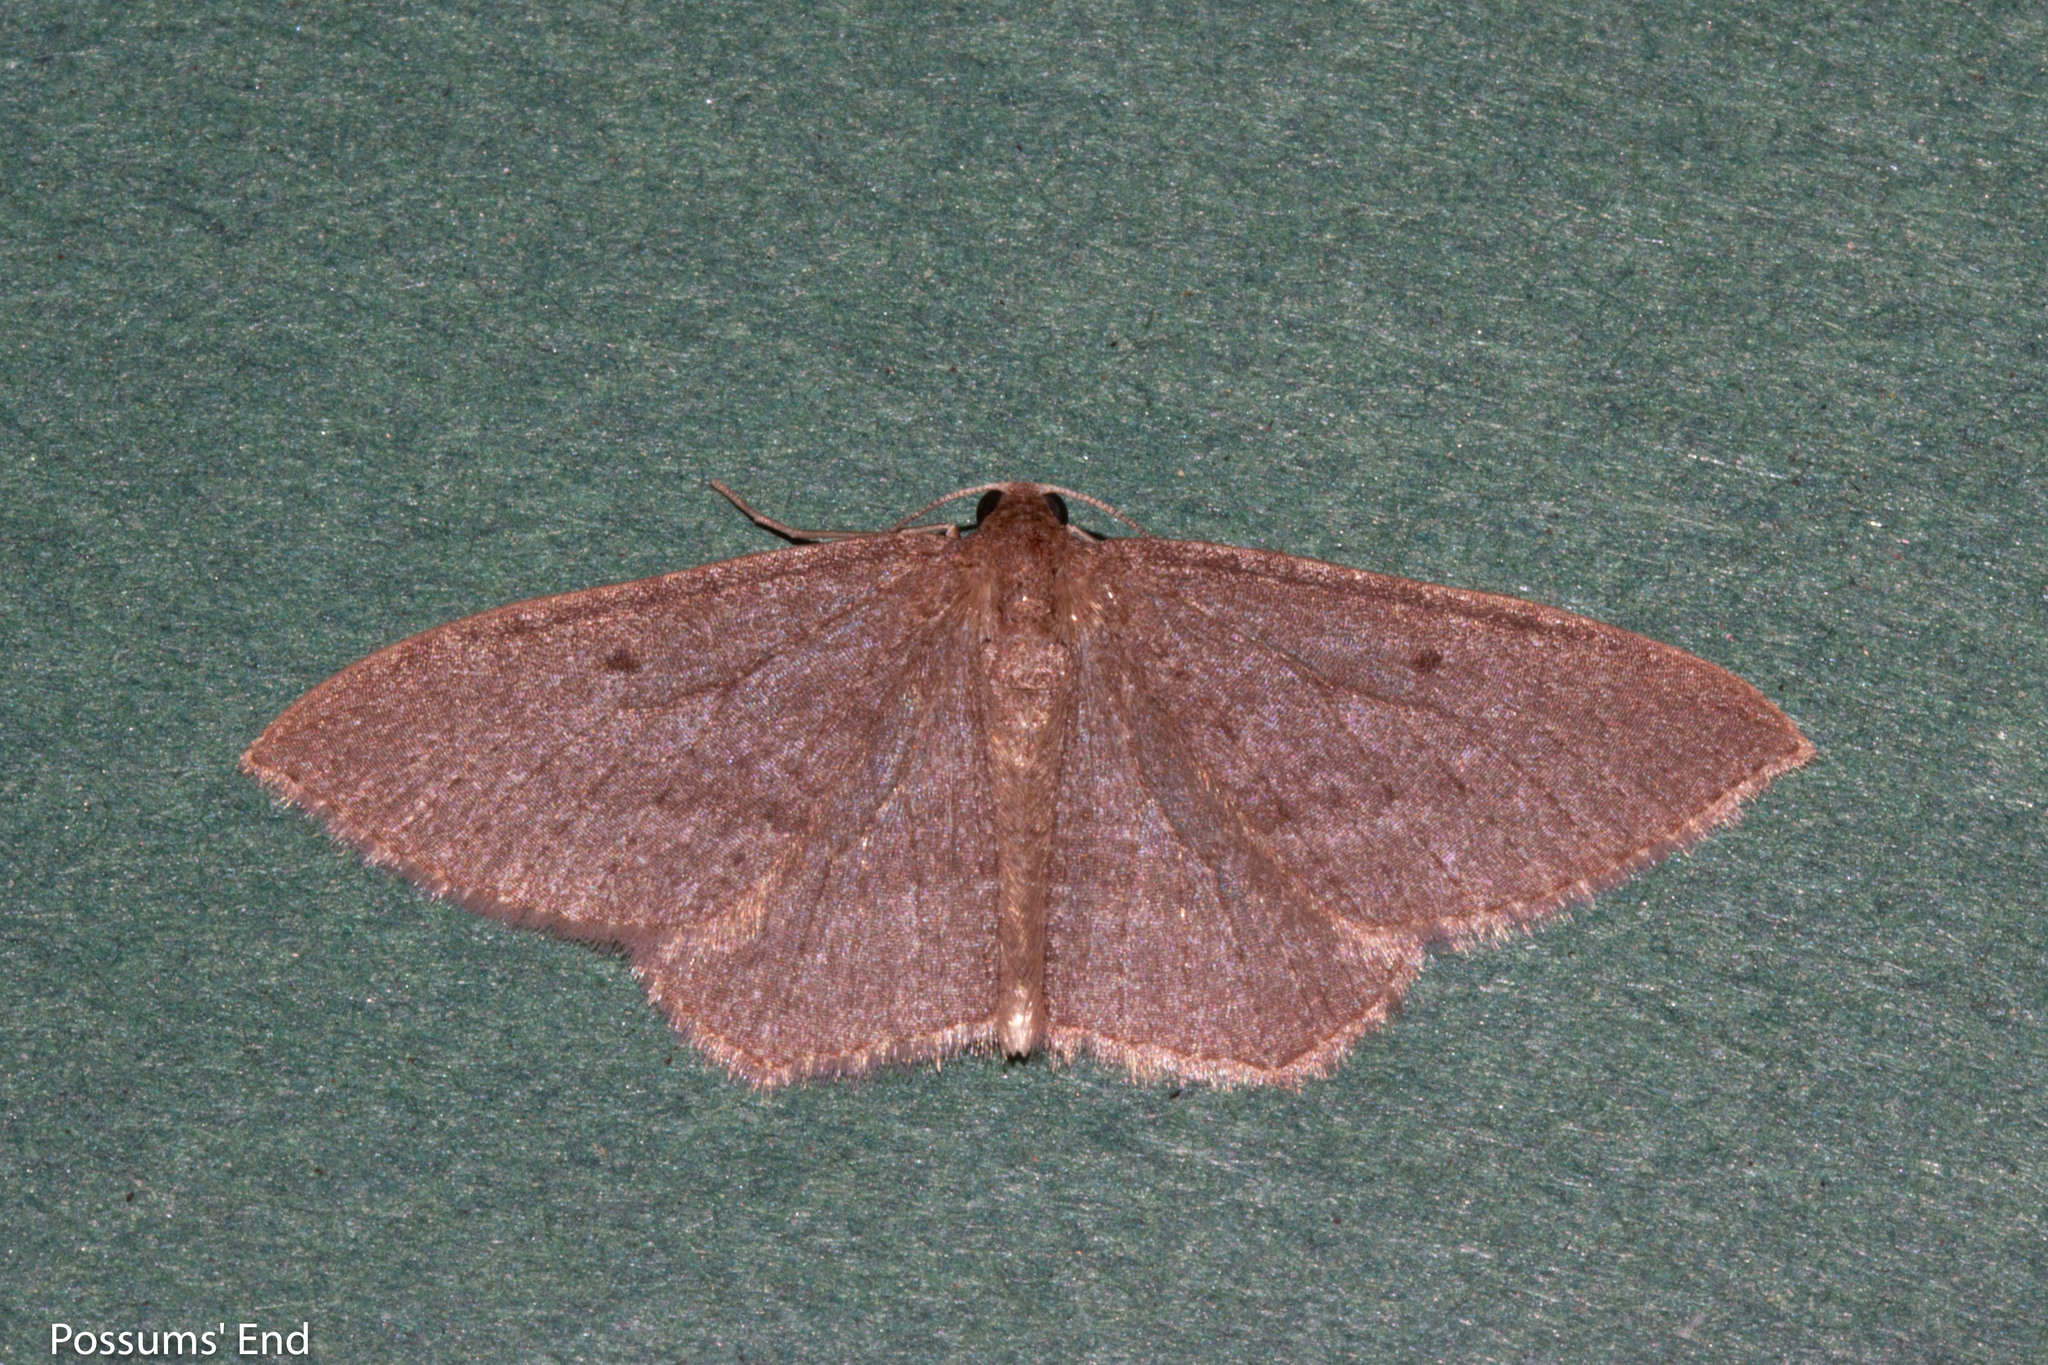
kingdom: Animalia
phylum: Arthropoda
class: Insecta
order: Lepidoptera
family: Geometridae
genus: Poecilasthena
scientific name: Poecilasthena subpurpureata
